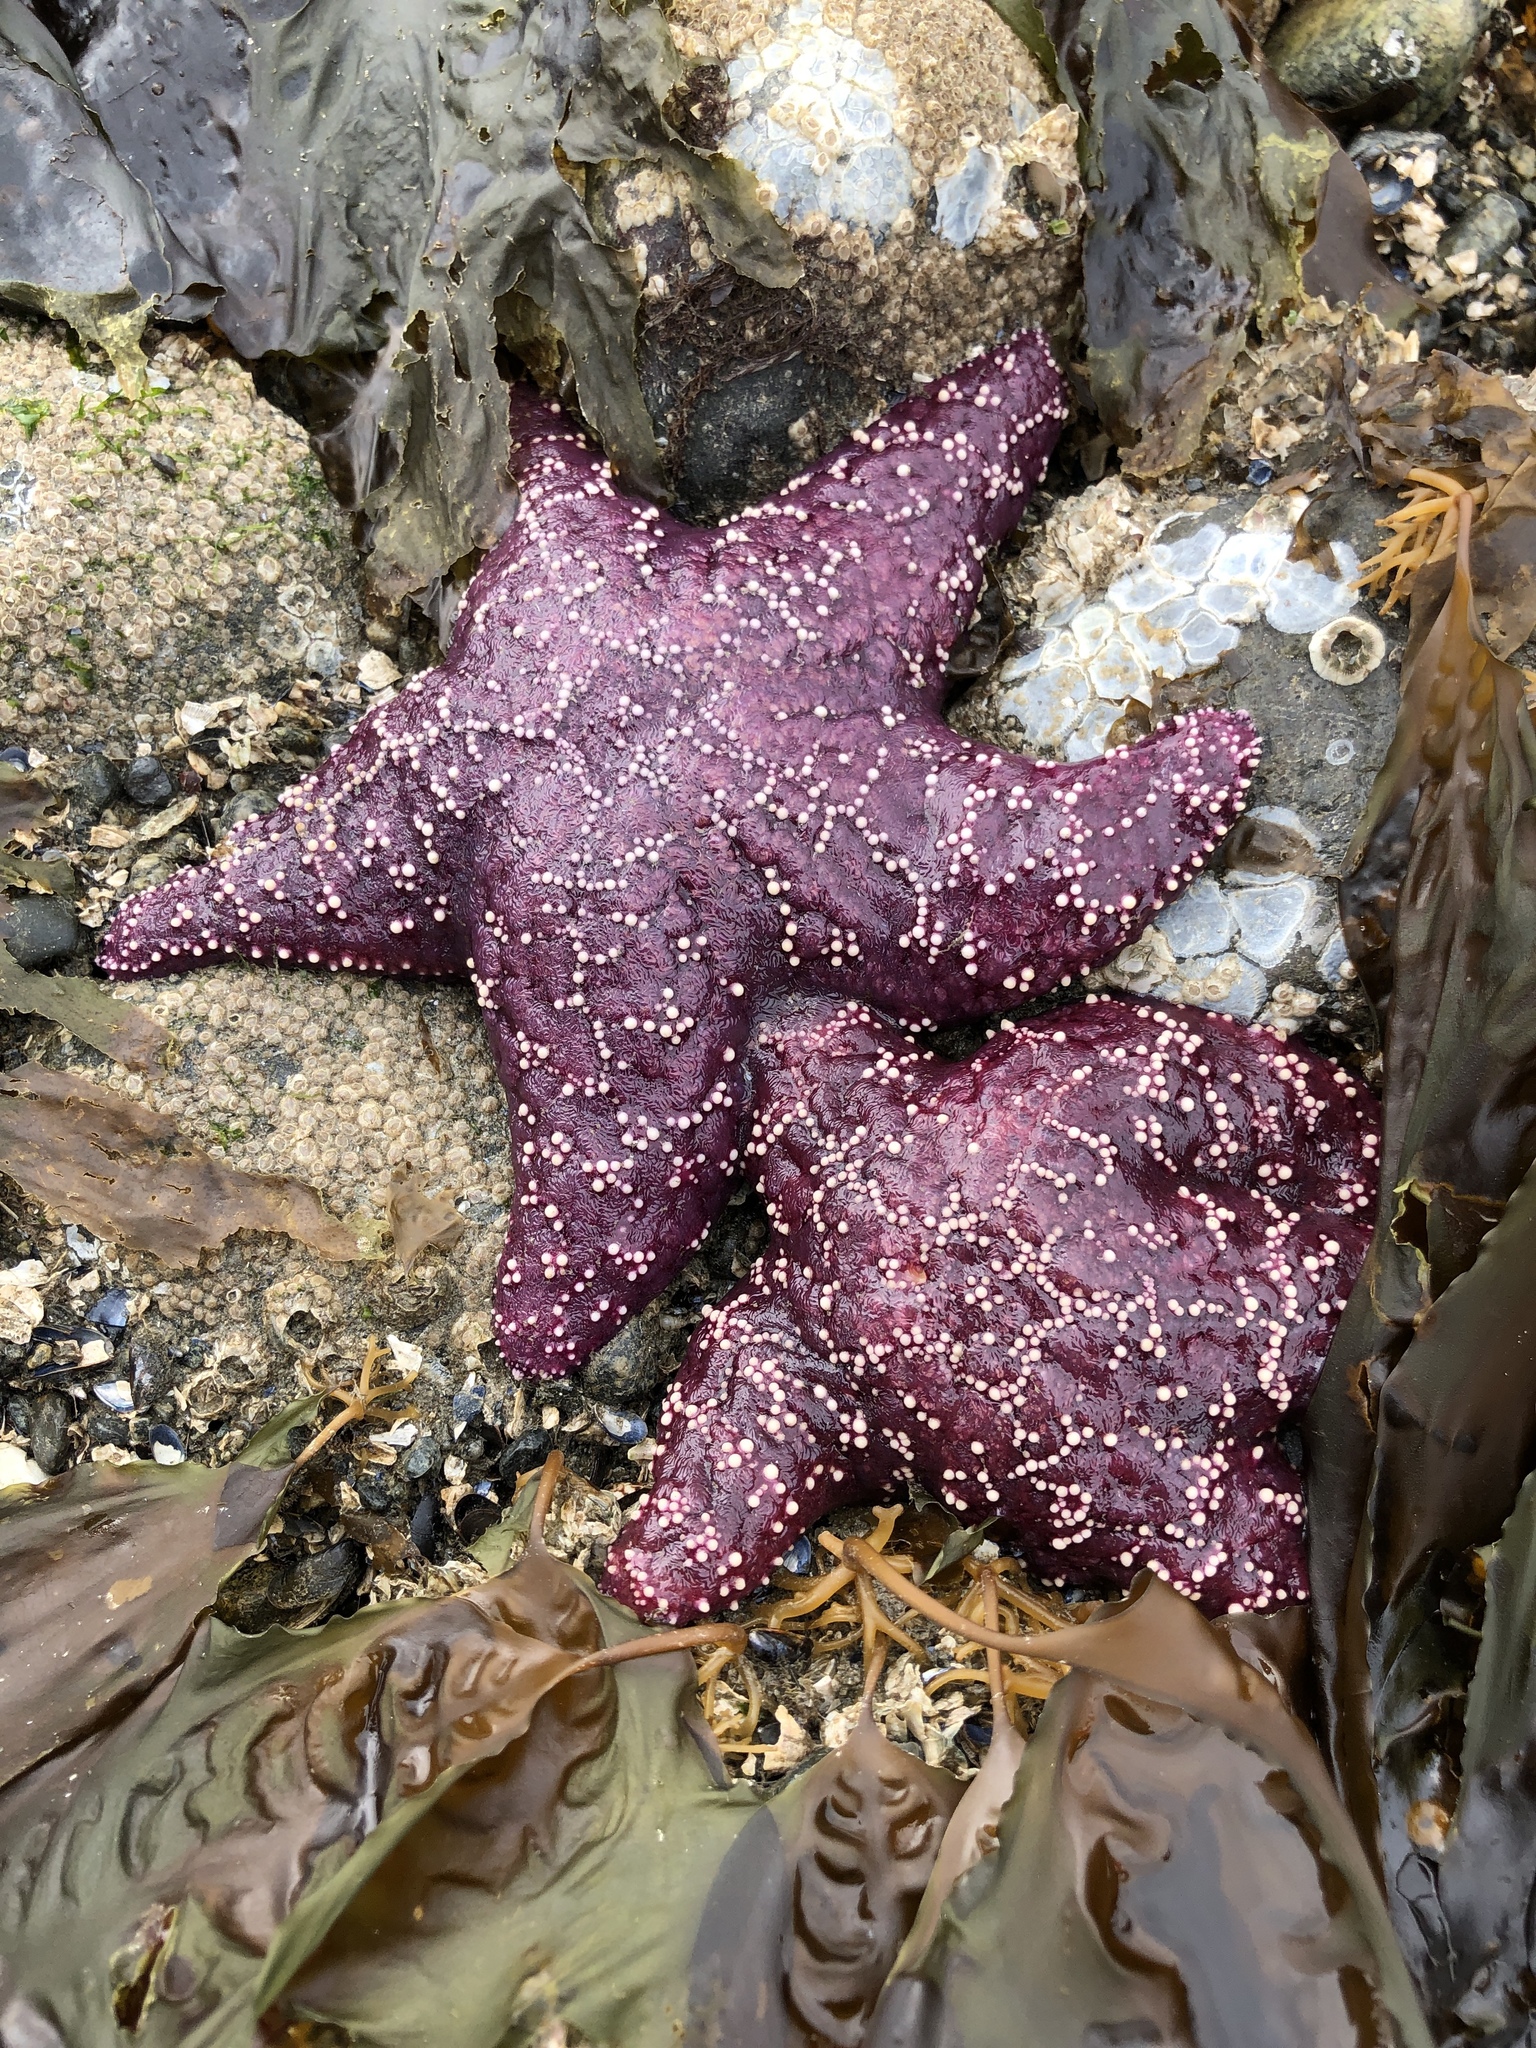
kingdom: Animalia
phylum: Echinodermata
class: Asteroidea
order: Forcipulatida
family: Asteriidae
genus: Pisaster
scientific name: Pisaster ochraceus
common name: Ochre stars
